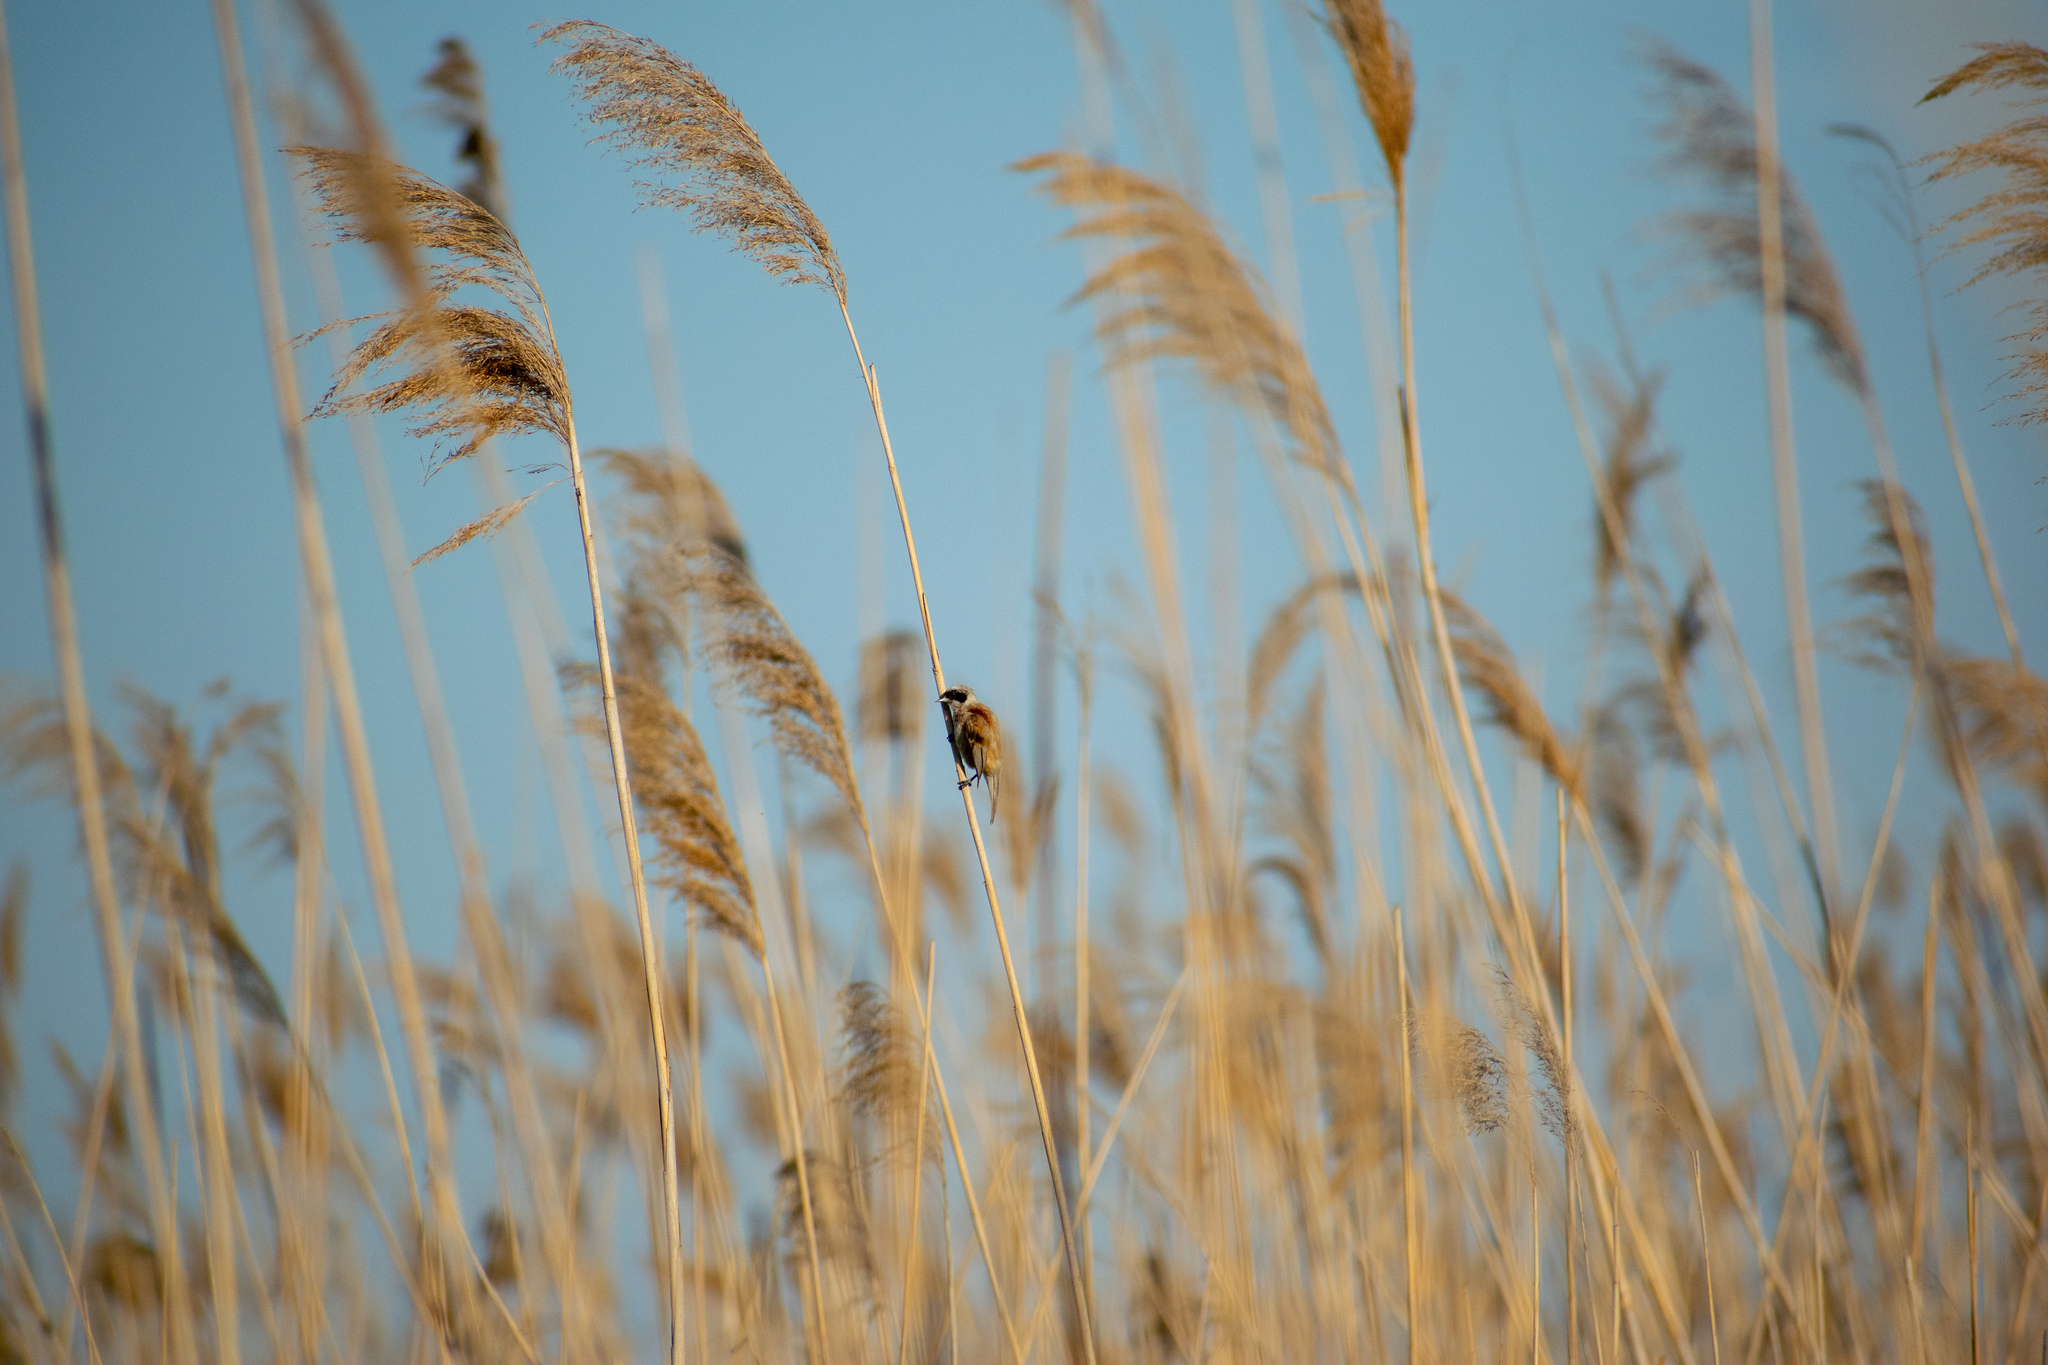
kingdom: Animalia
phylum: Chordata
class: Aves
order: Passeriformes
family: Remizidae
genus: Remiz
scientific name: Remiz pendulinus
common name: Eurasian penduline tit
